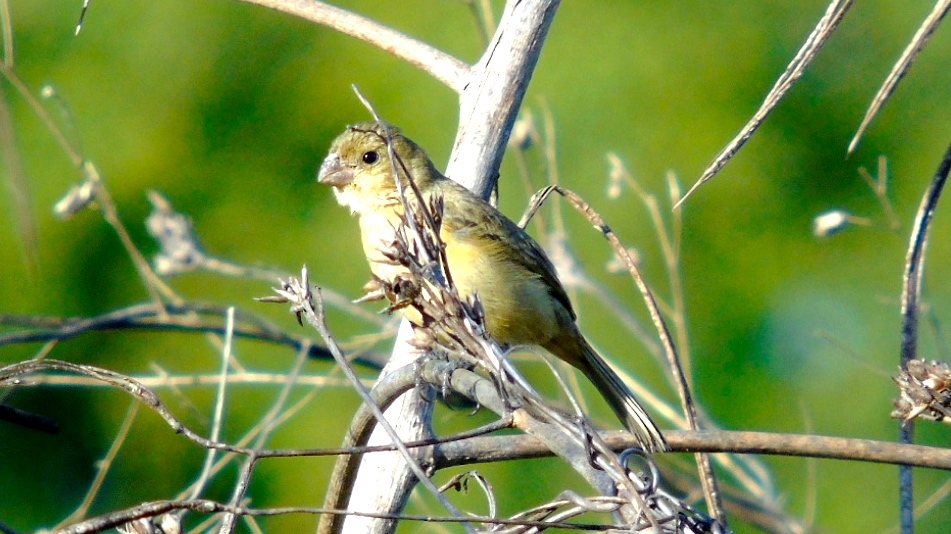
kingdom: Animalia
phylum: Chordata
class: Aves
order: Passeriformes
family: Thraupidae
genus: Sporophila
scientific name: Sporophila torqueola
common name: White-collared seedeater
